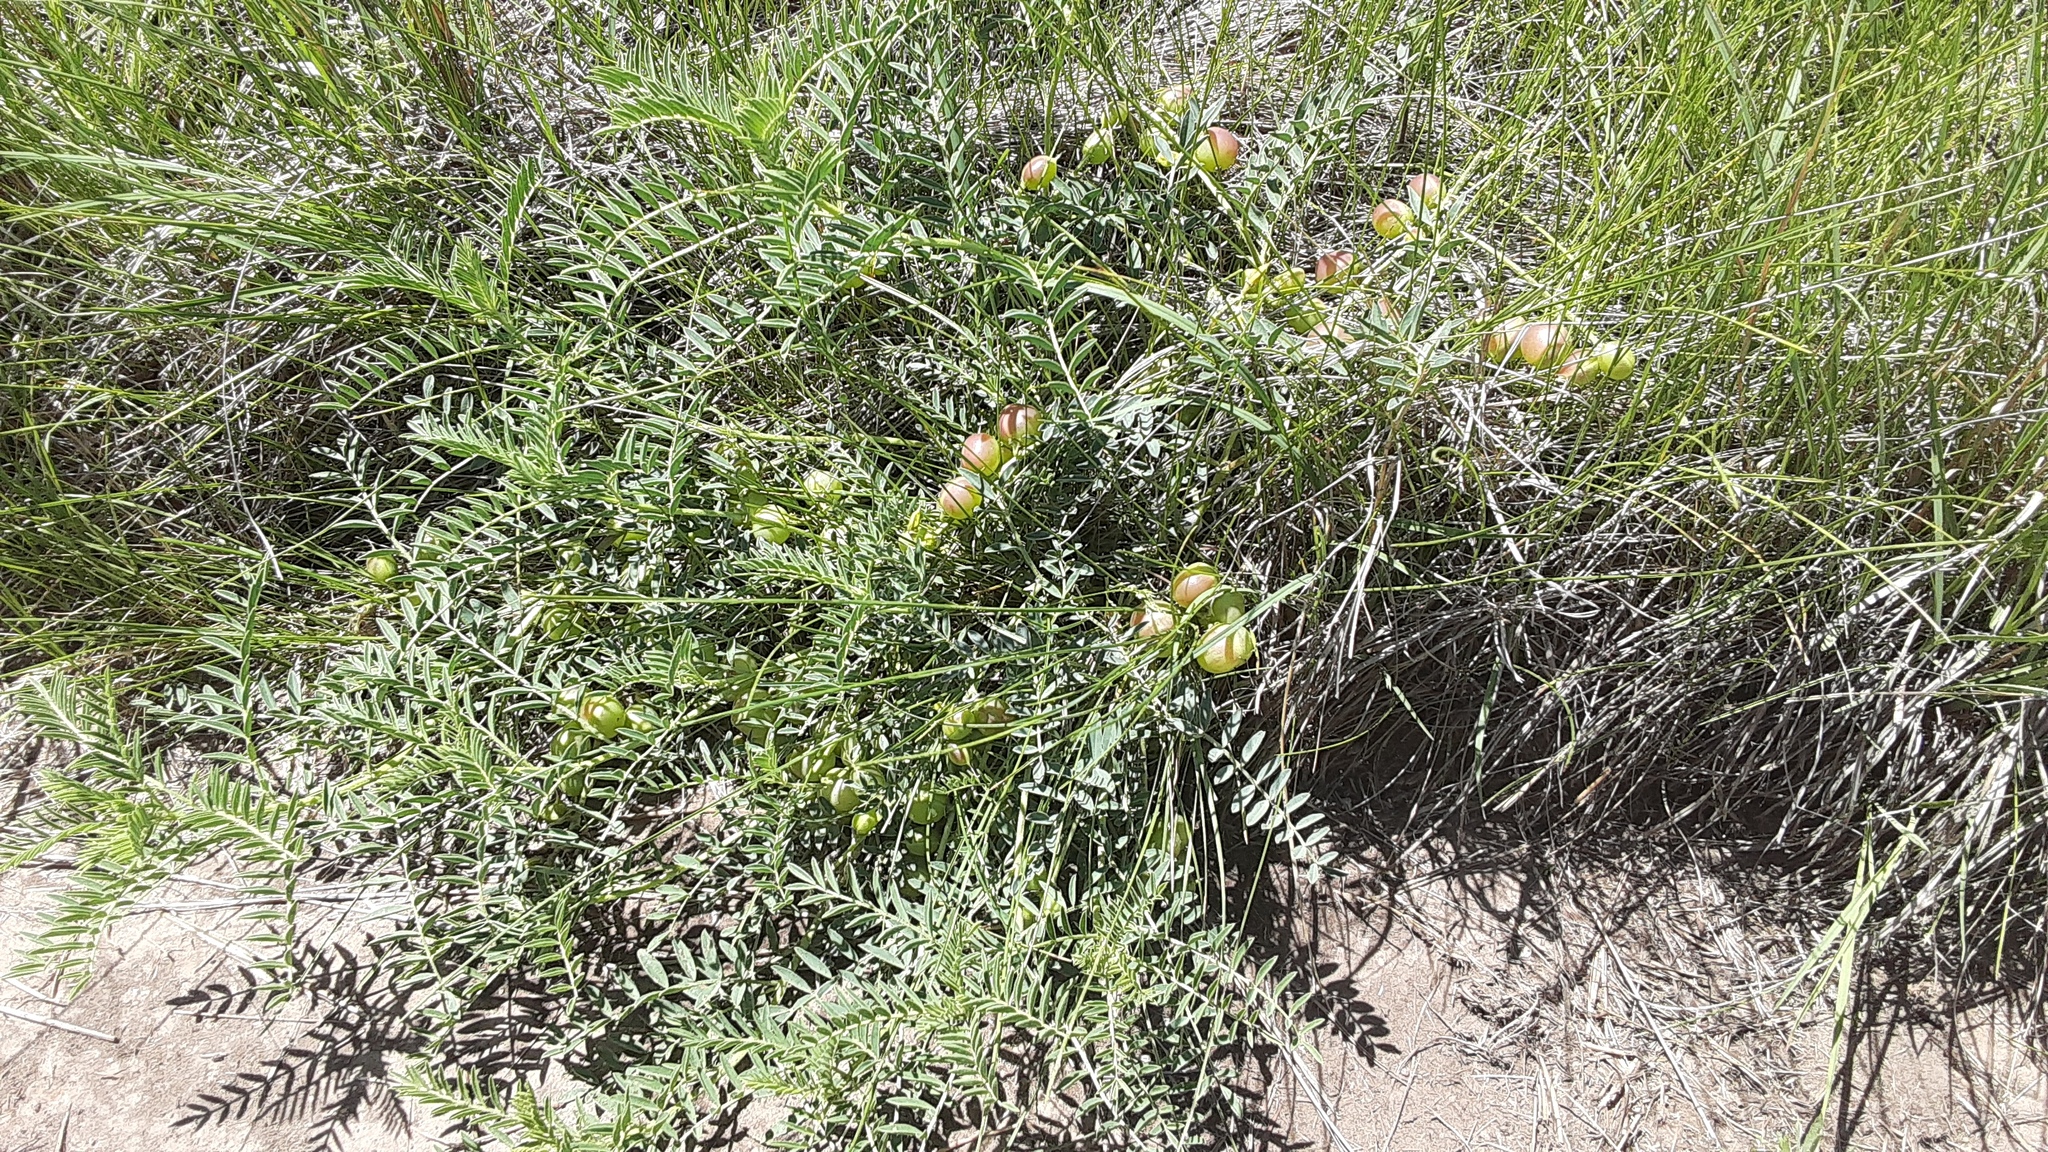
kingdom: Plantae
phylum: Tracheophyta
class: Magnoliopsida
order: Fabales
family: Fabaceae
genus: Astragalus
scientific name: Astragalus crassicarpus
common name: Ground-plum milk-vetch
